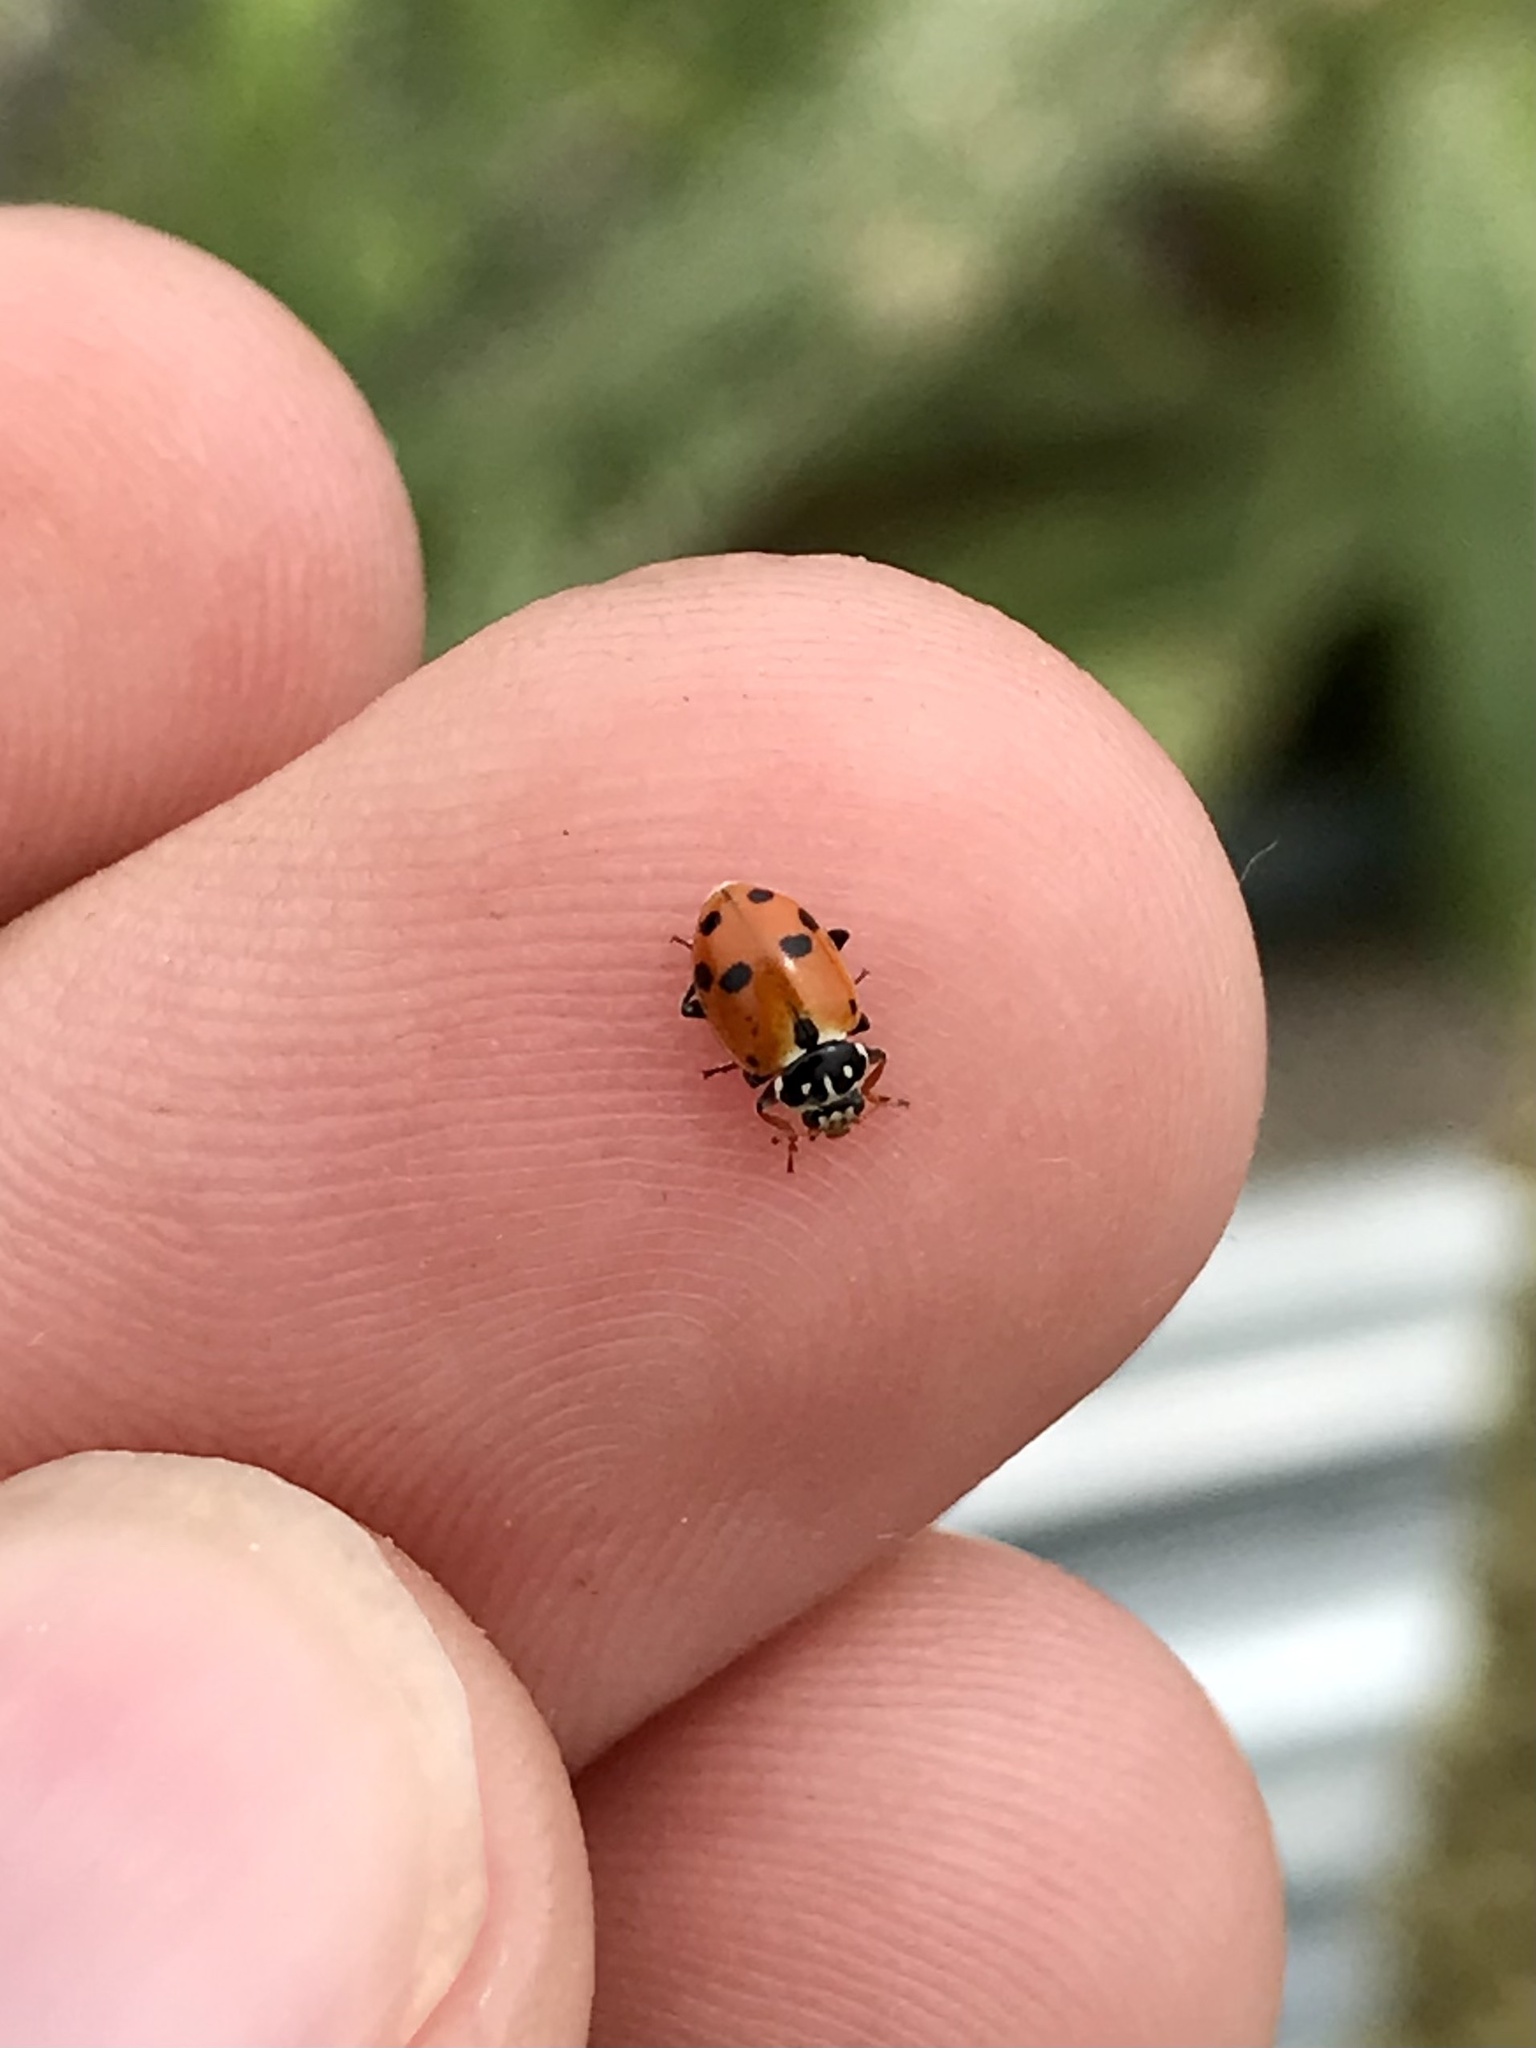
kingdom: Animalia
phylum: Arthropoda
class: Insecta
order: Coleoptera
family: Coccinellidae
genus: Hippodamia
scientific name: Hippodamia variegata
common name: Ladybird beetle
